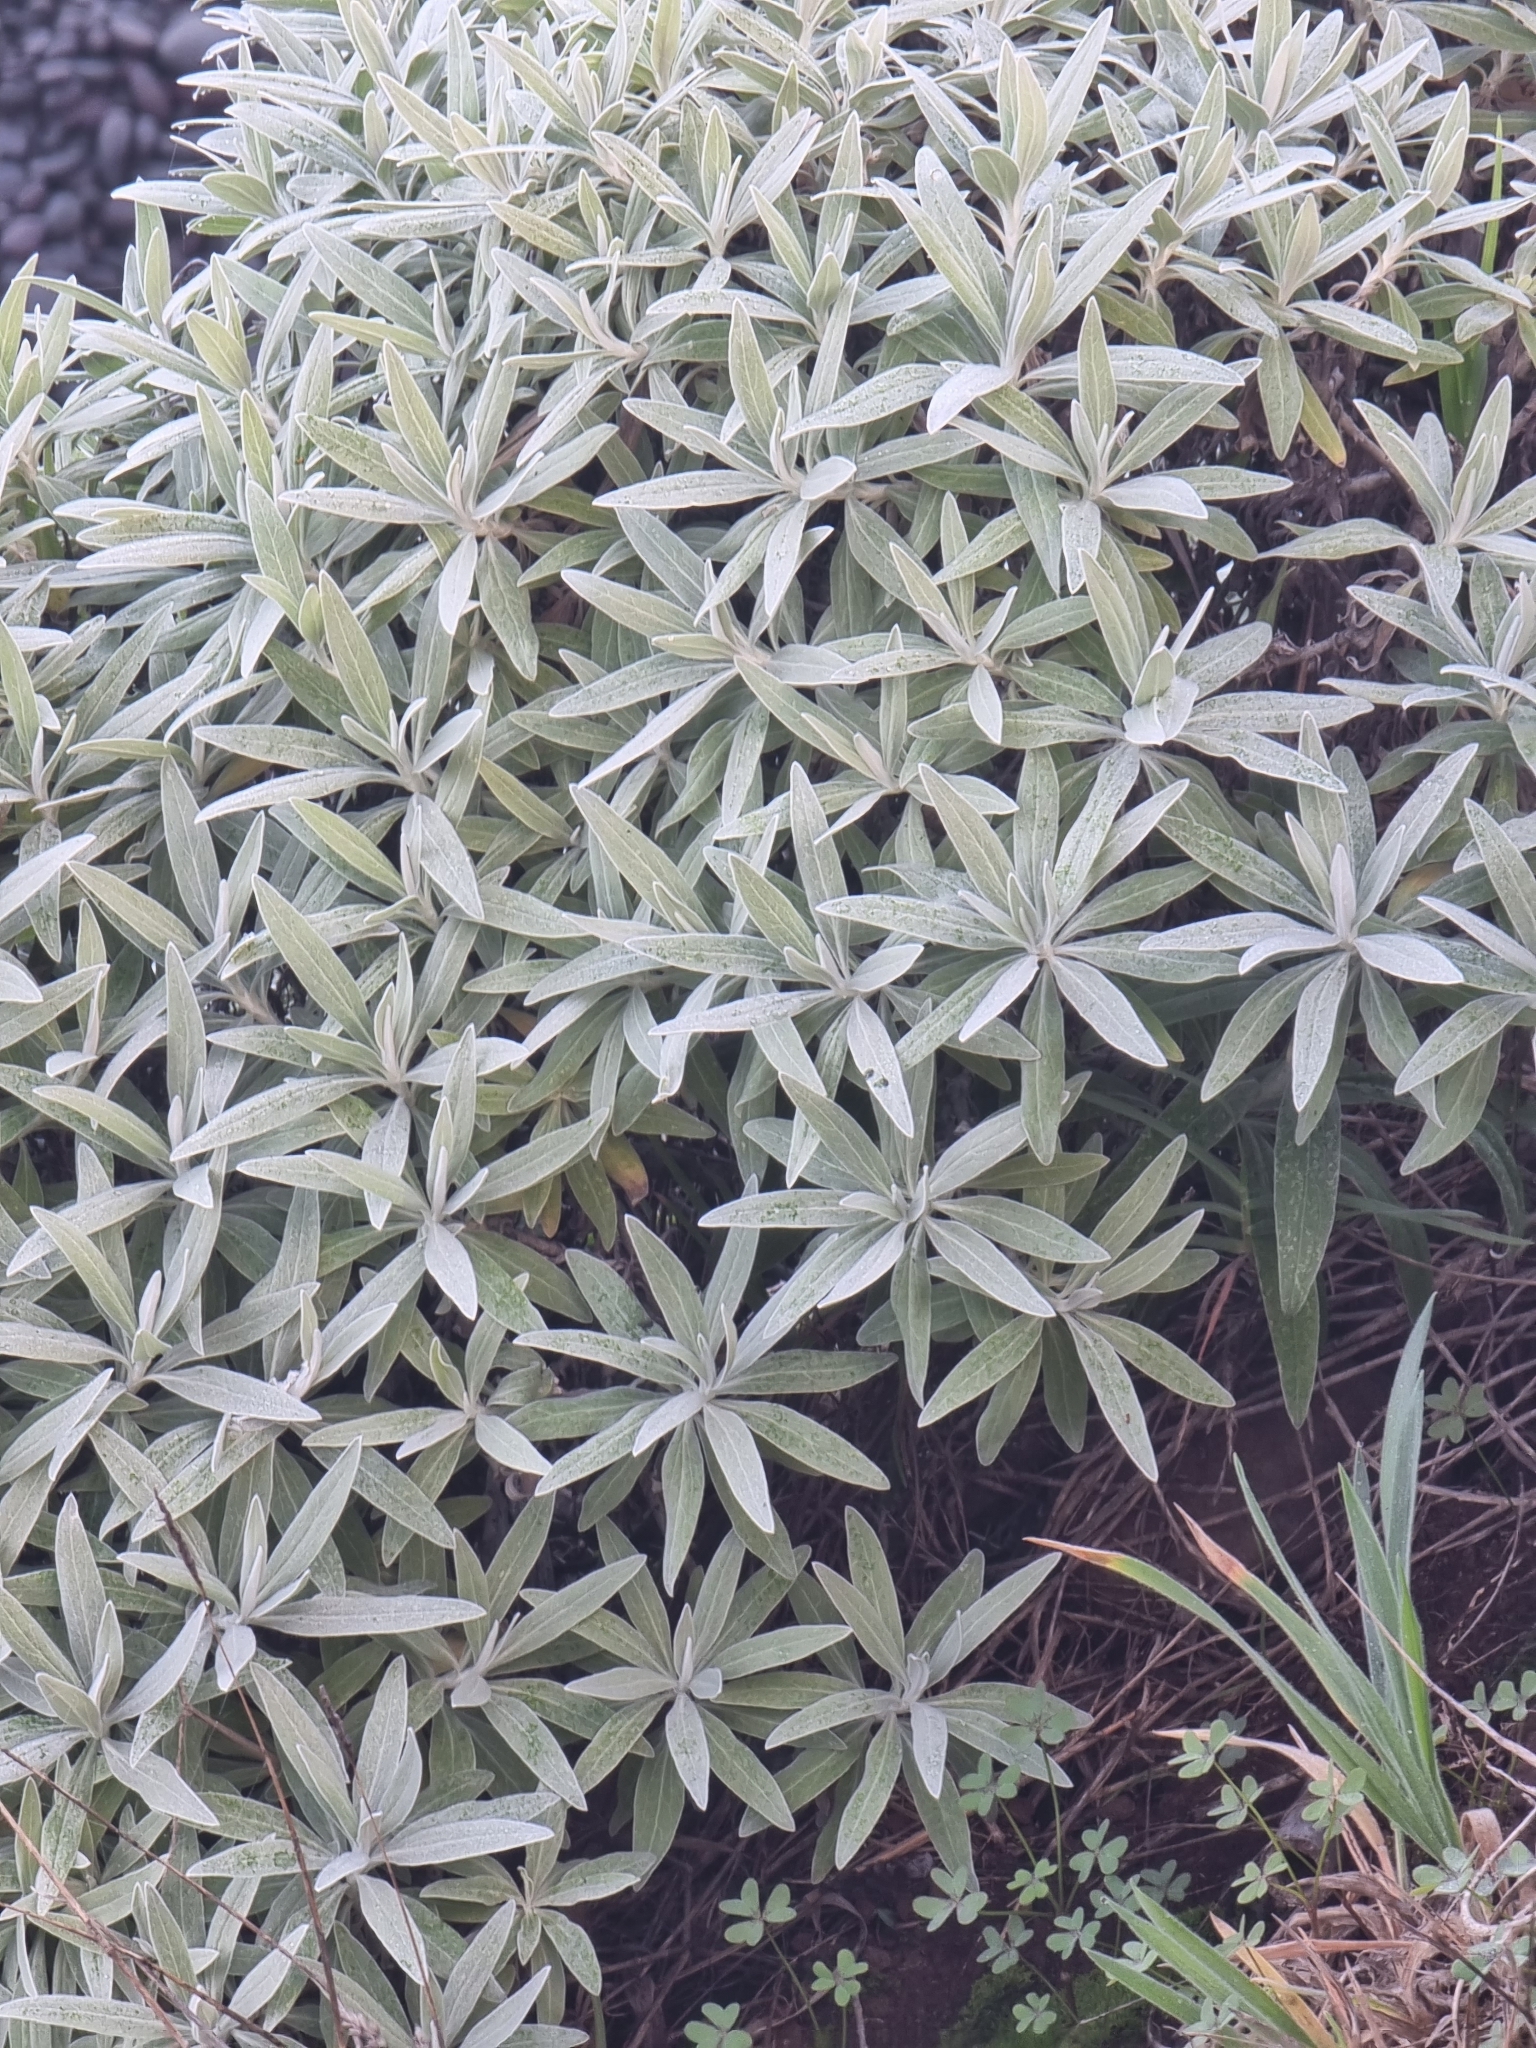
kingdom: Plantae
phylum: Tracheophyta
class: Magnoliopsida
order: Asterales
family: Asteraceae
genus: Helichrysum
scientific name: Helichrysum melaleucum
